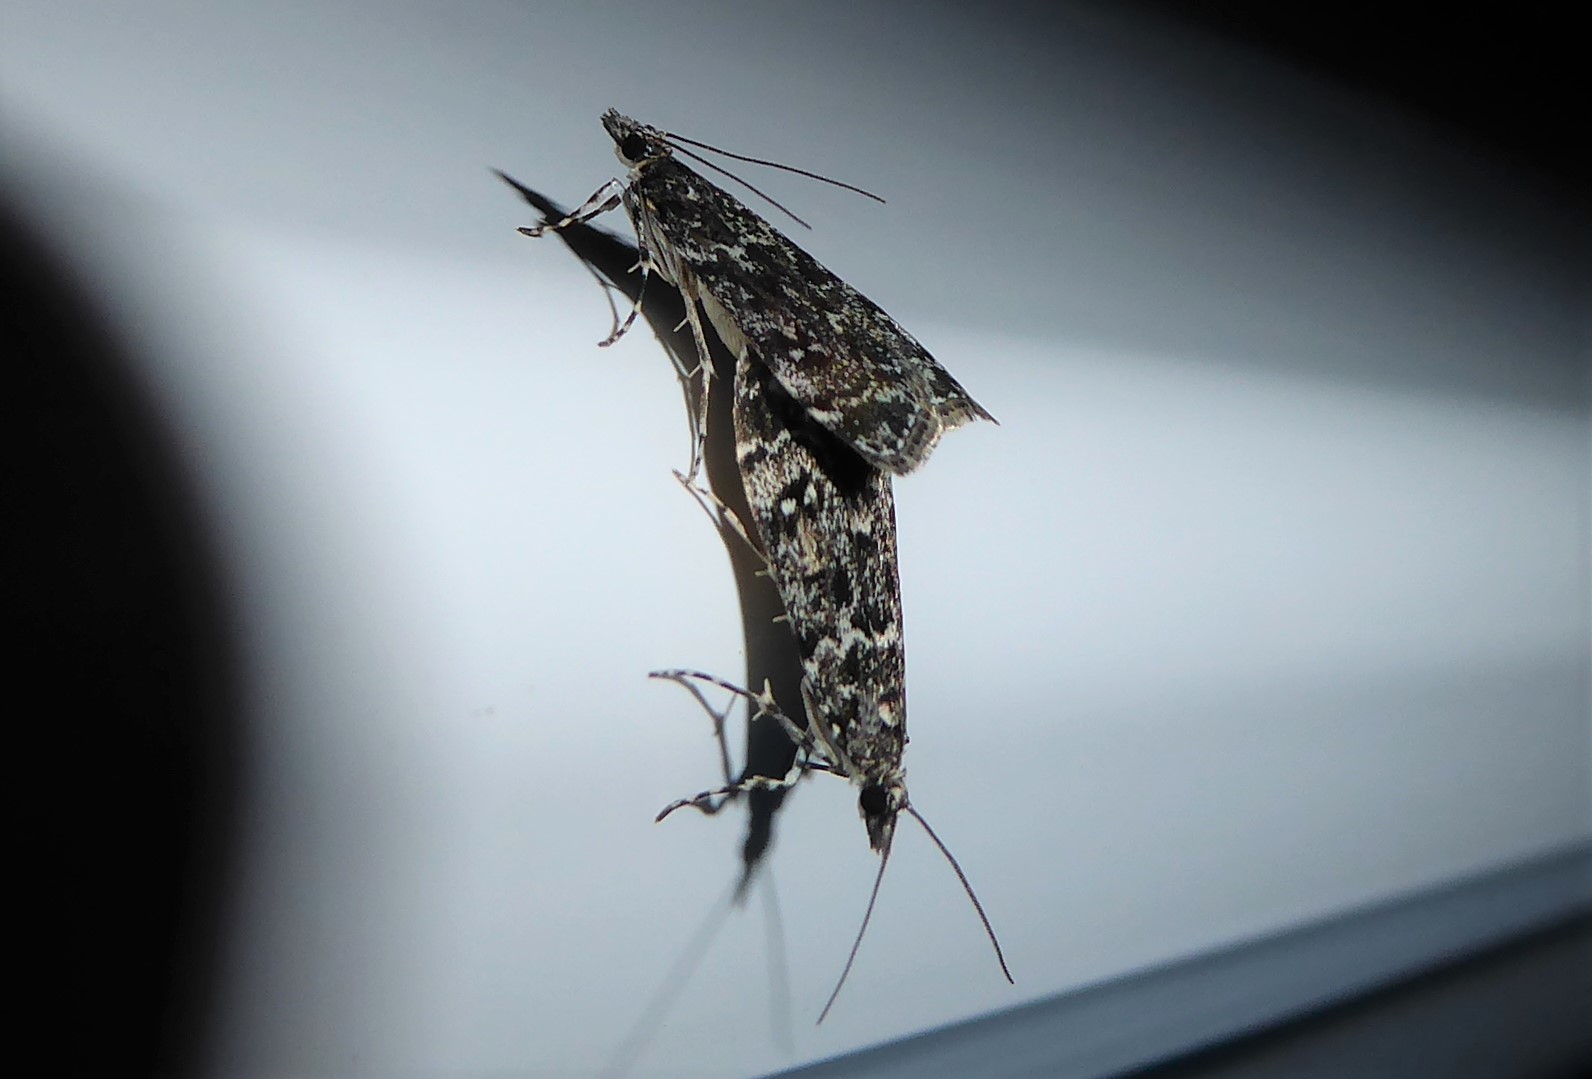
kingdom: Animalia
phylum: Arthropoda
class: Insecta
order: Lepidoptera
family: Crambidae
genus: Eudonia
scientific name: Eudonia philerga
